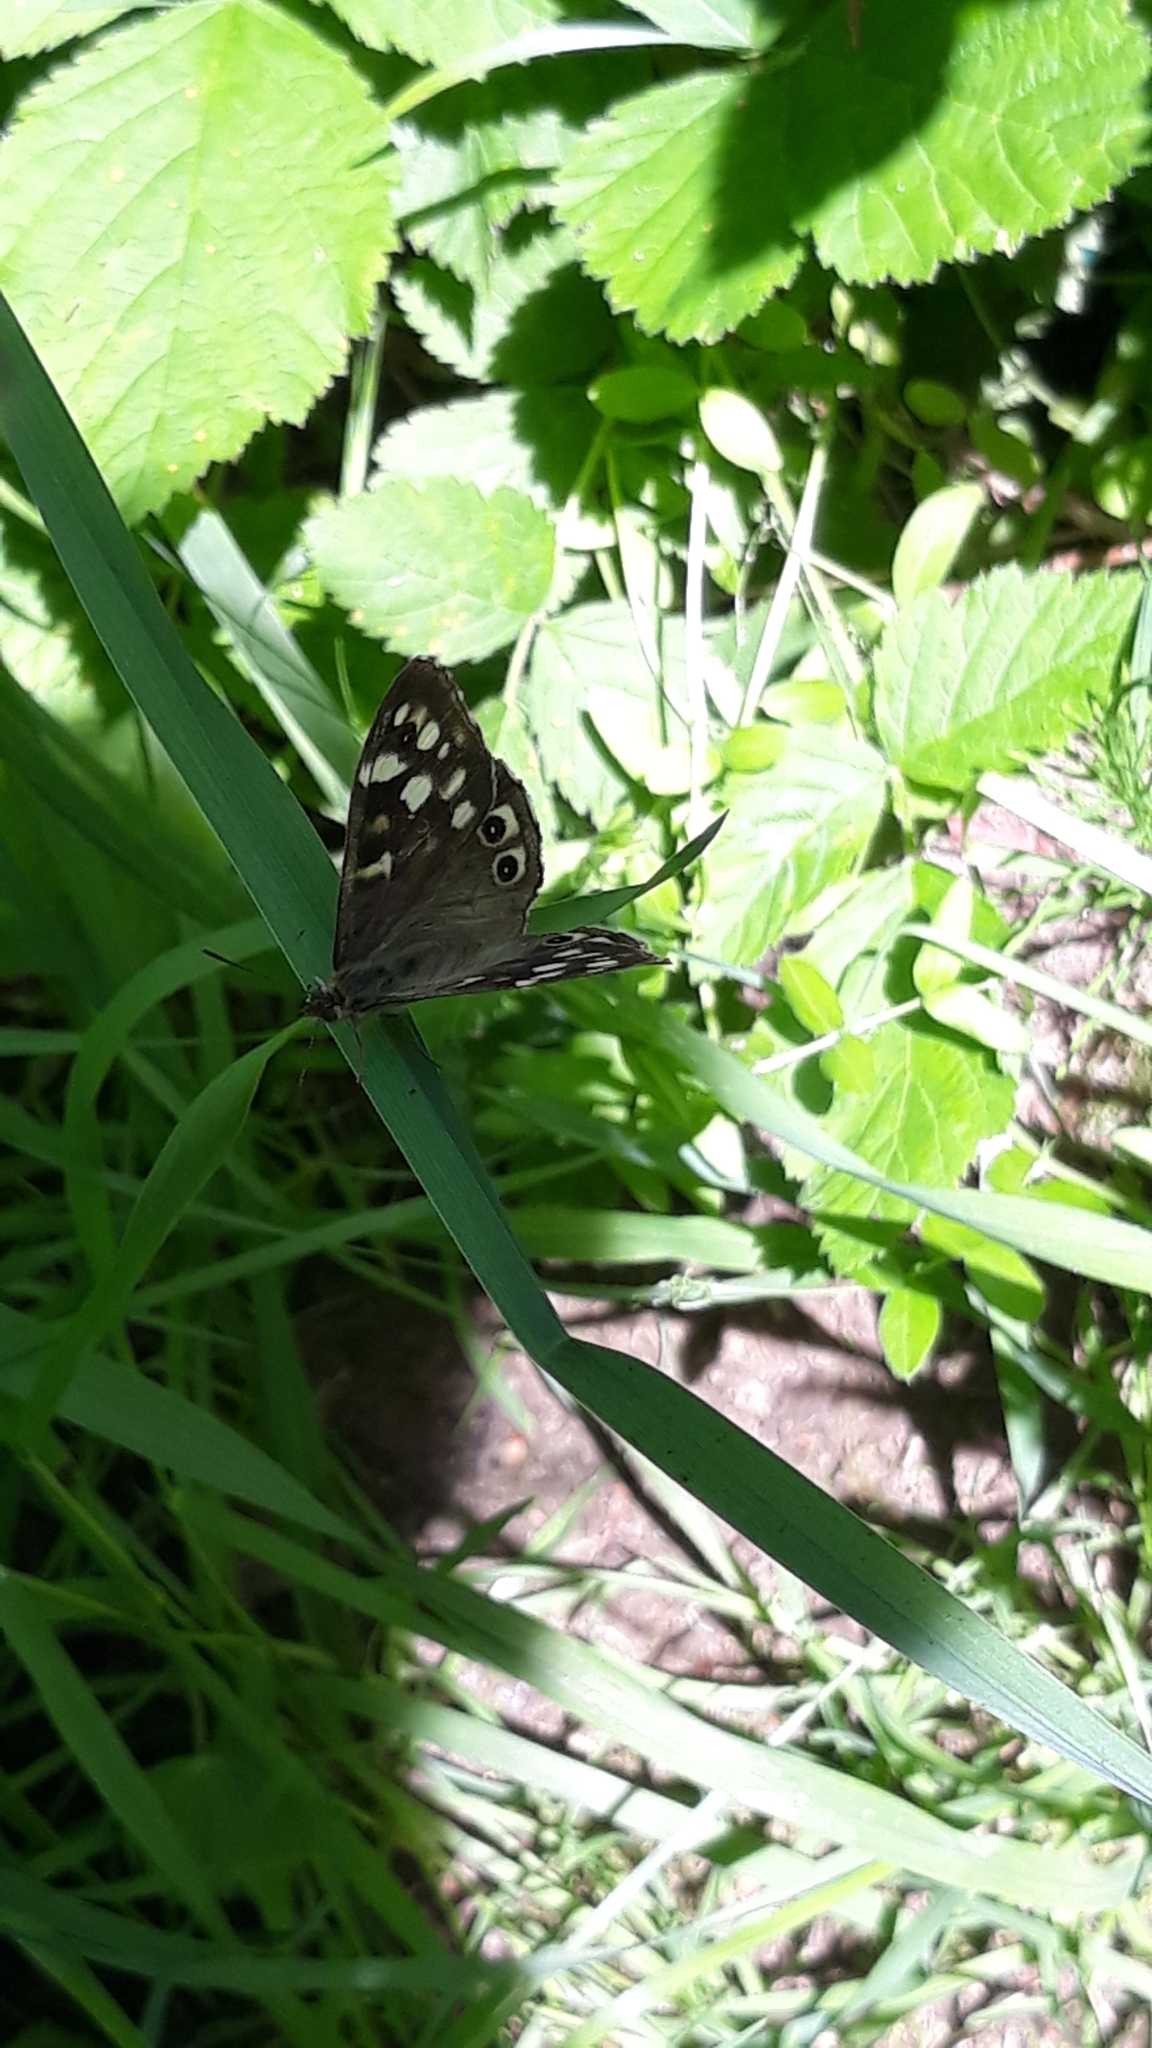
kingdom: Animalia
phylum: Arthropoda
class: Insecta
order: Lepidoptera
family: Nymphalidae
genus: Pararge
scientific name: Pararge aegeria
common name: Speckled wood
